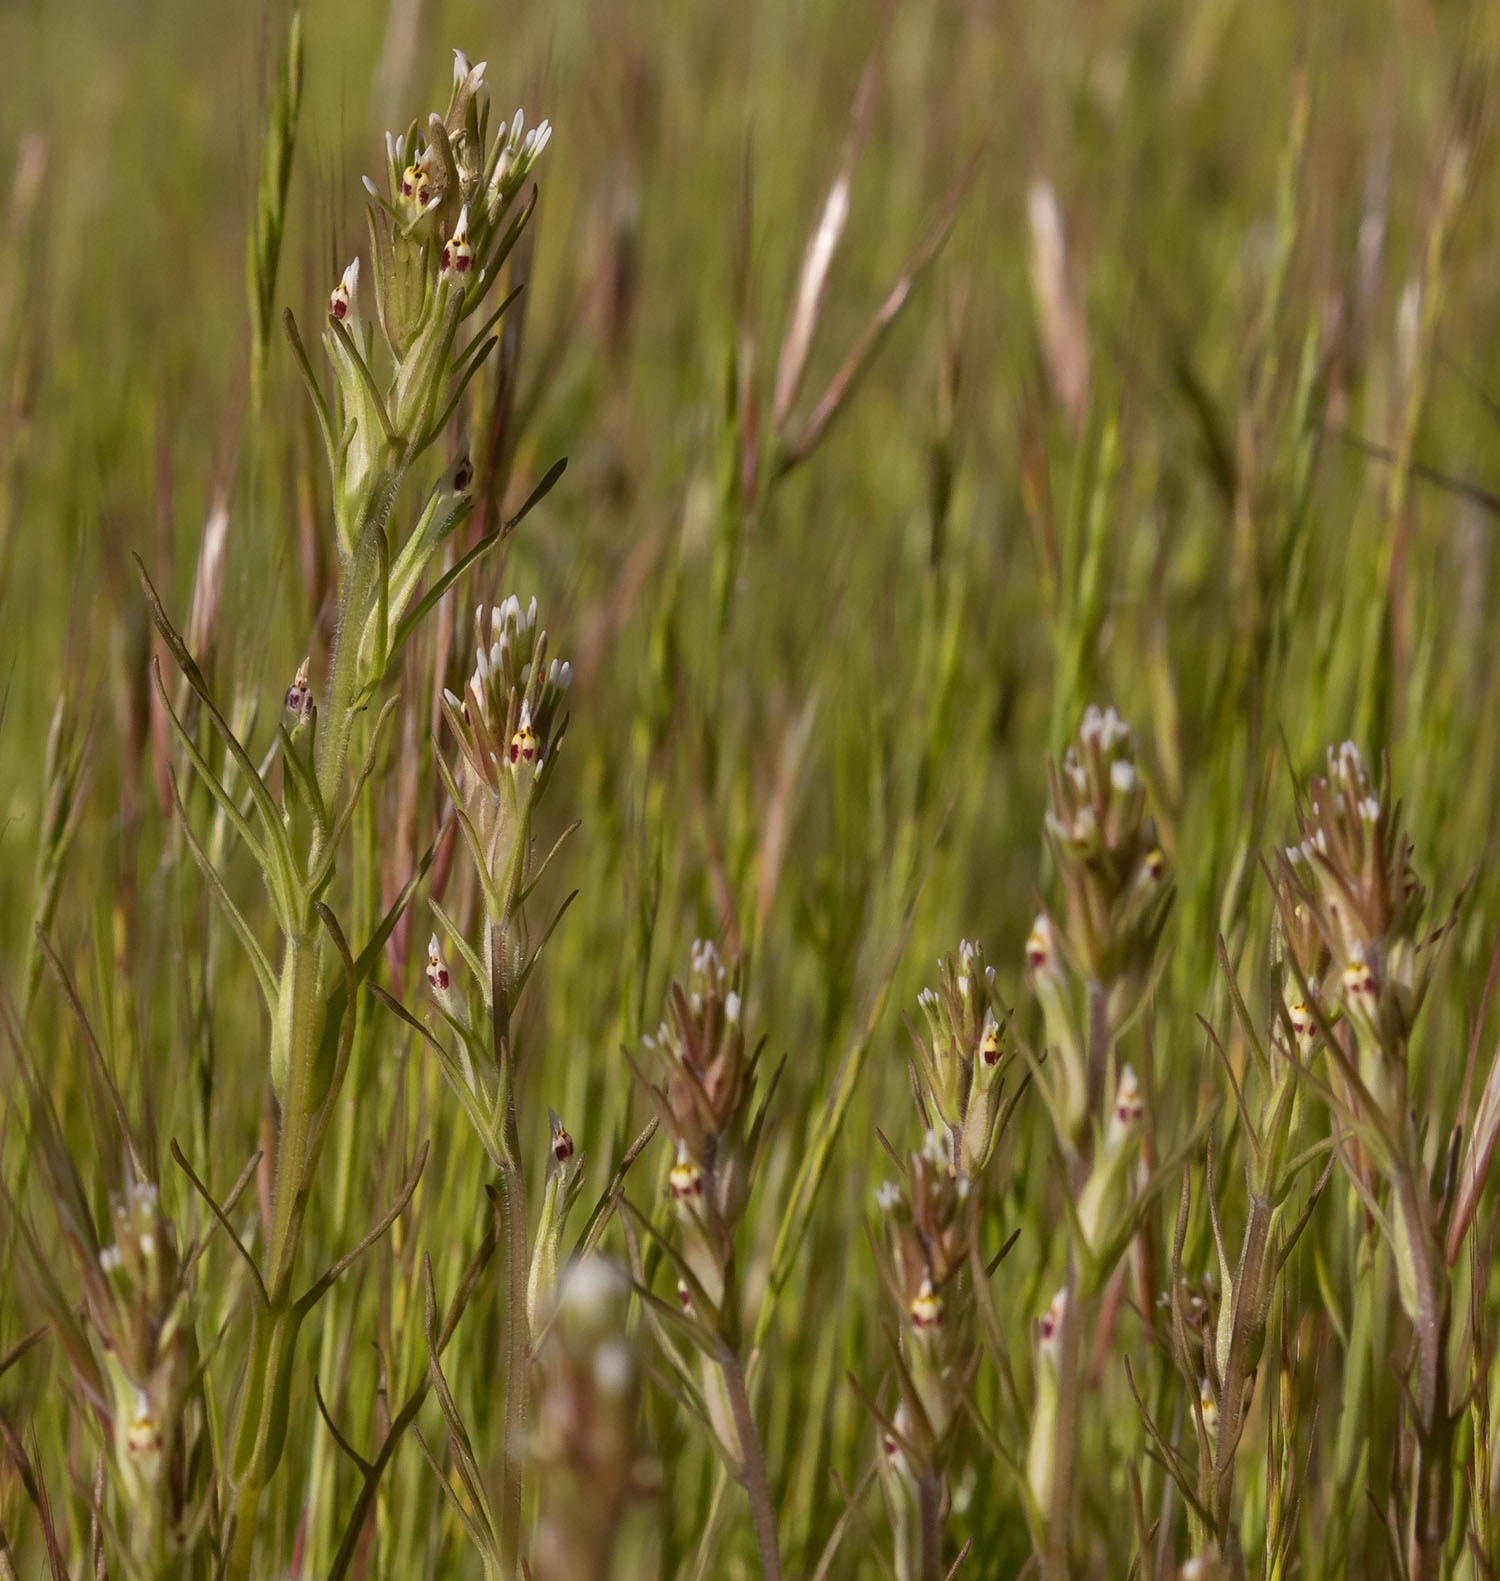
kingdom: Plantae
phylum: Tracheophyta
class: Magnoliopsida
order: Lamiales
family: Orobanchaceae
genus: Castilleja
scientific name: Castilleja attenuata
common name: Valley tassels
